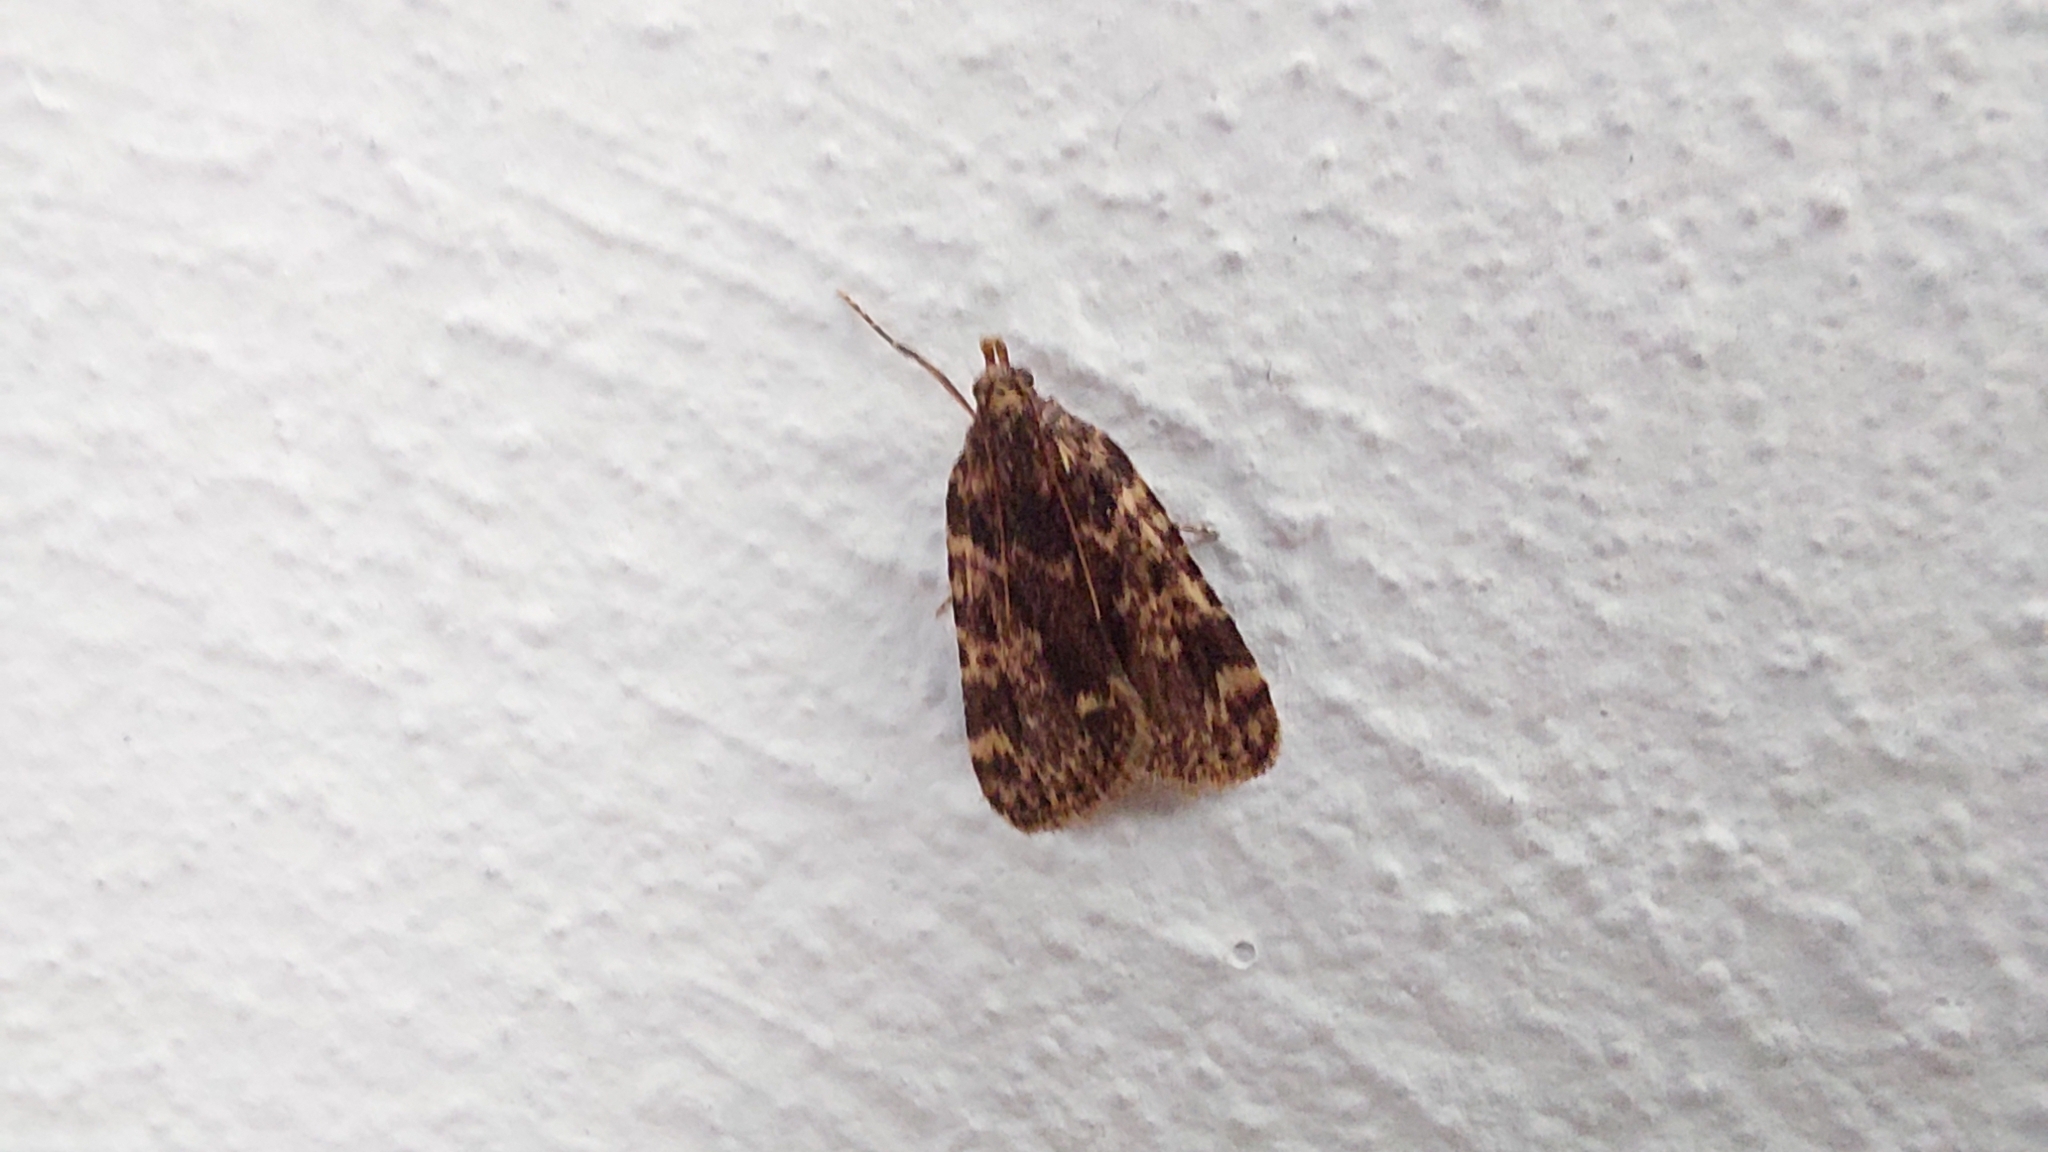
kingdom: Animalia
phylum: Arthropoda
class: Insecta
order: Lepidoptera
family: Pyralidae
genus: Aglossa
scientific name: Aglossa caprealis
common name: Small tabby
